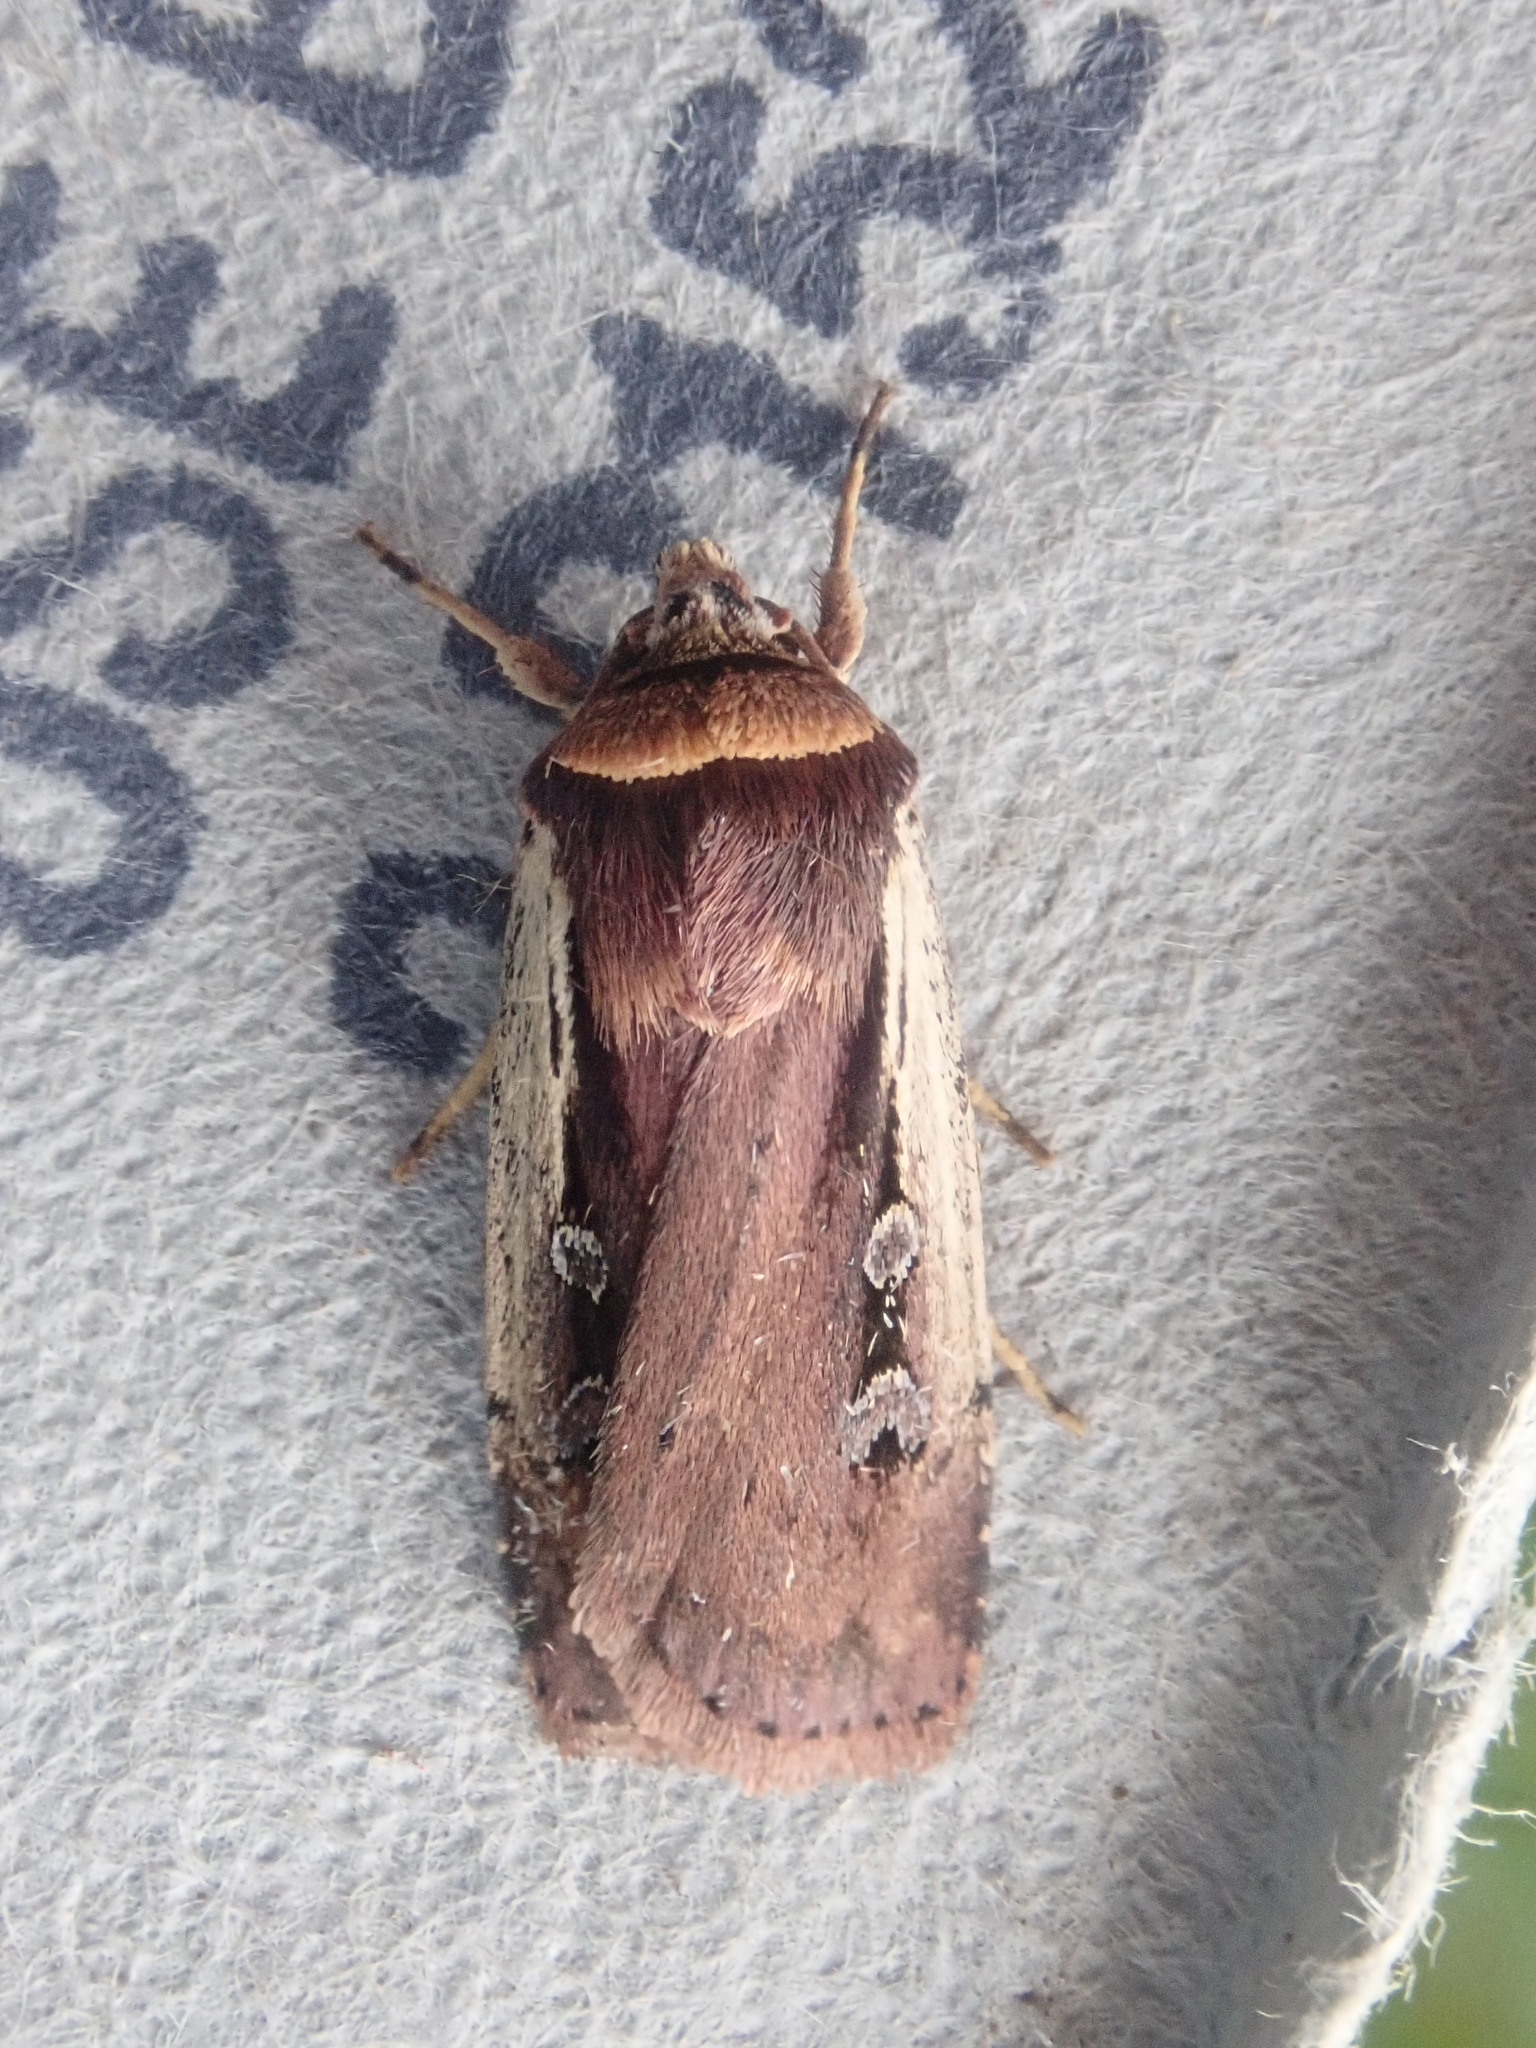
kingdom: Animalia
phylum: Arthropoda
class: Insecta
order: Lepidoptera
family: Noctuidae
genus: Ochropleura
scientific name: Ochropleura implecta
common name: Flame-shouldered dart
